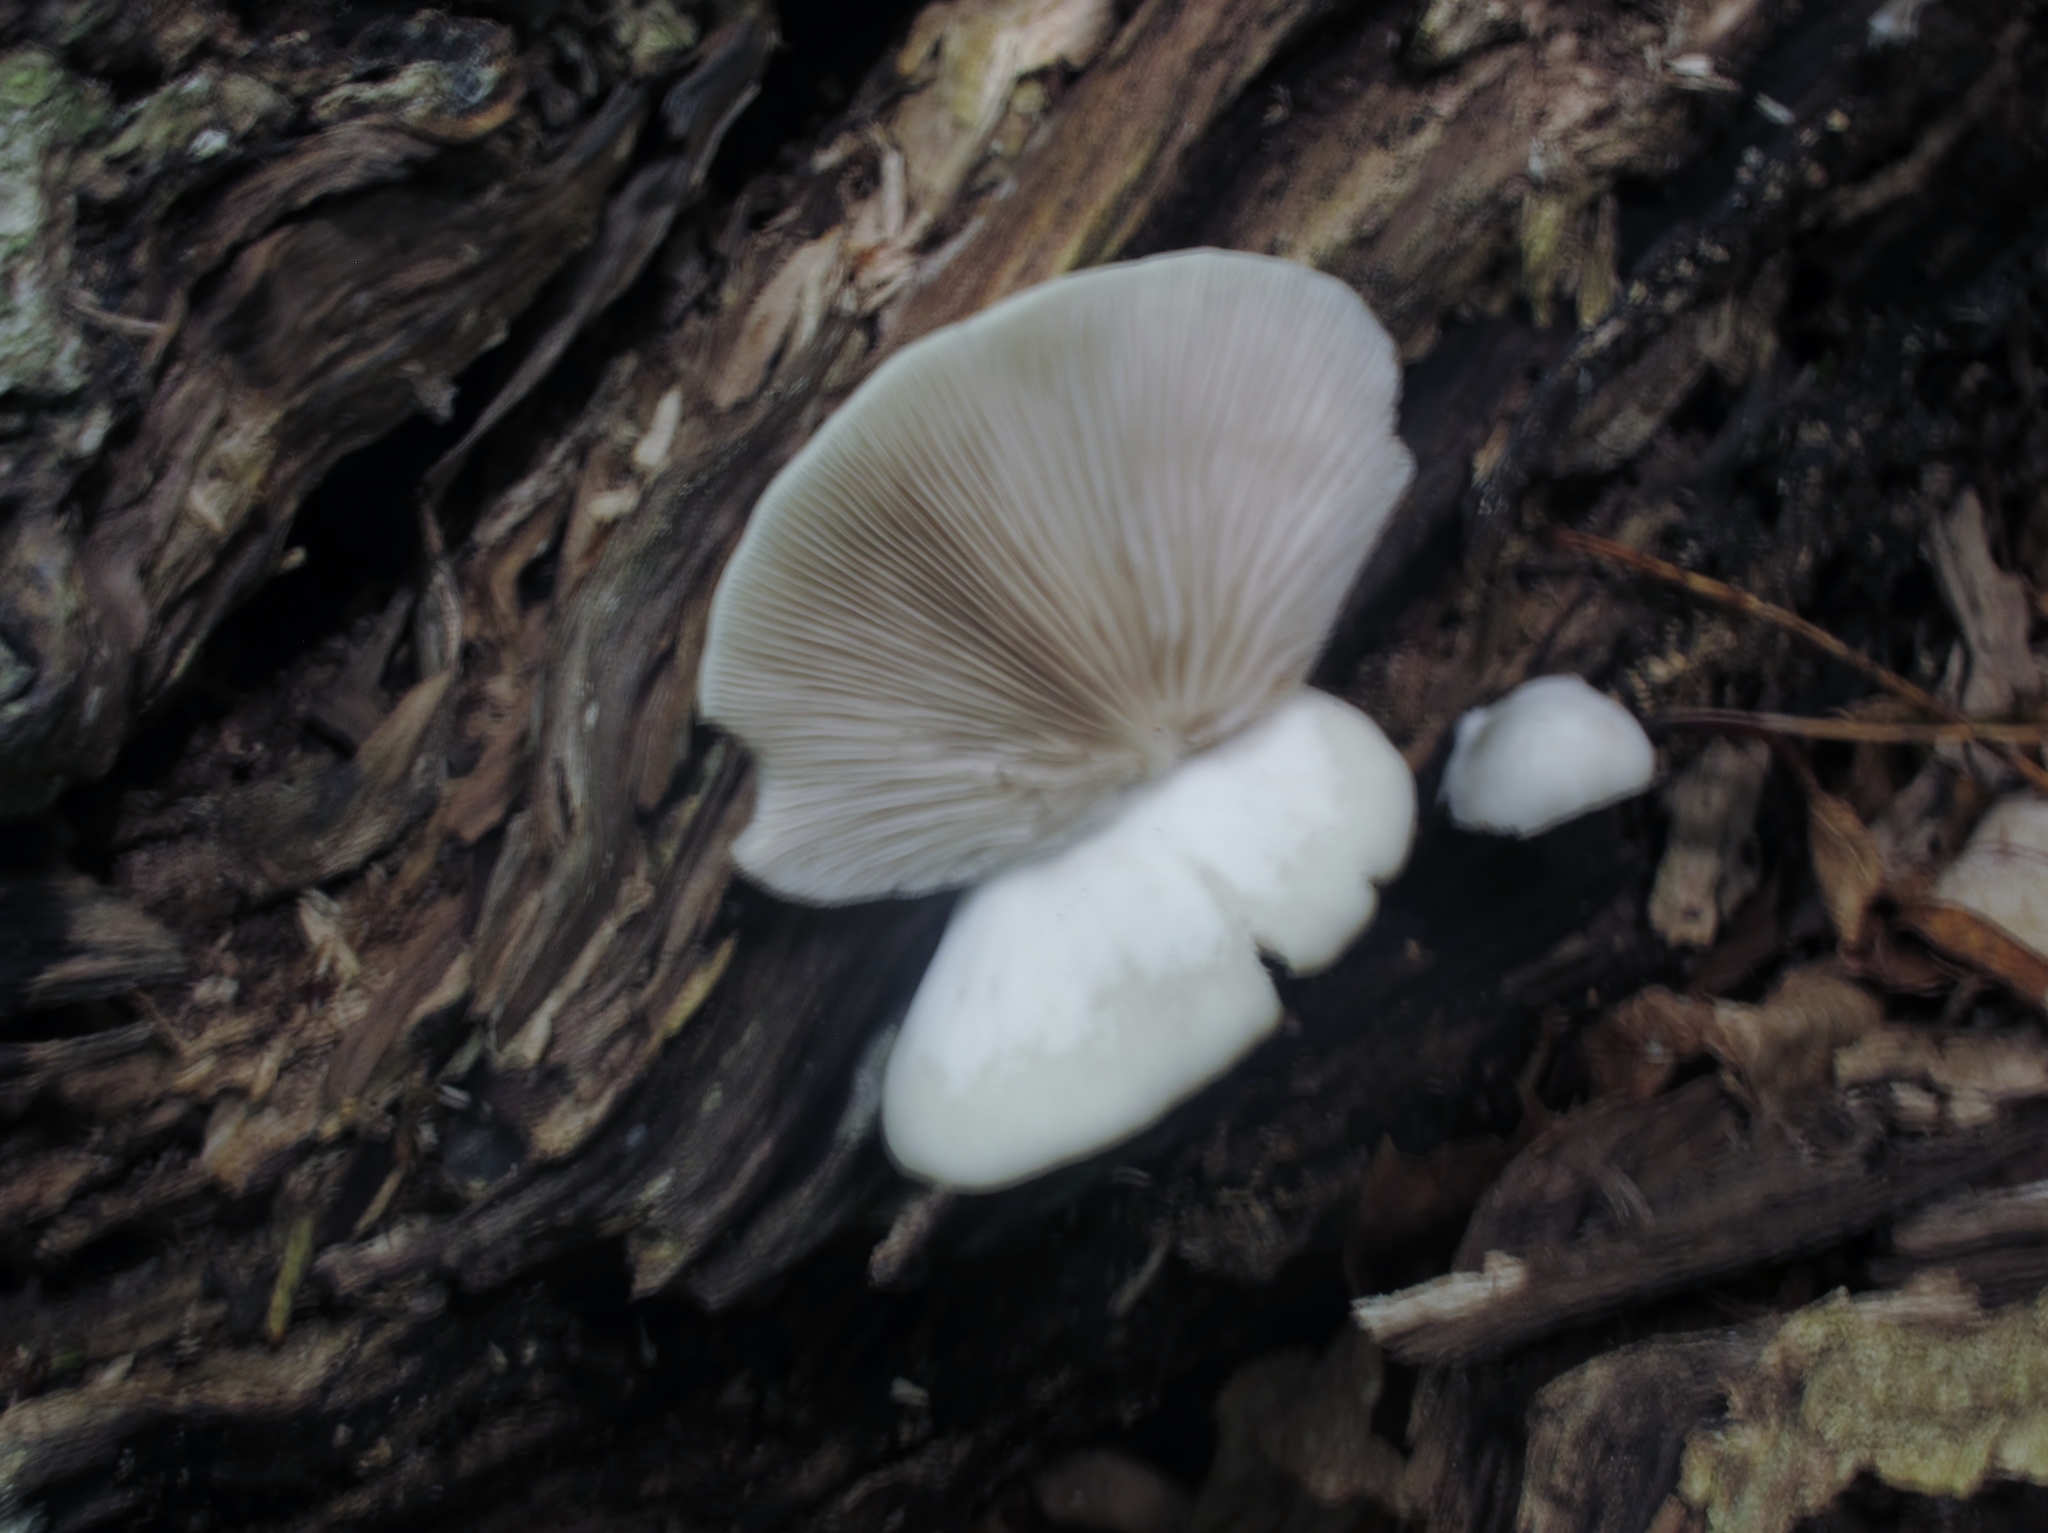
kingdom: Fungi
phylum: Basidiomycota
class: Agaricomycetes
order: Agaricales
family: Crepidotaceae
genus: Crepidotus
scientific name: Crepidotus applanatus
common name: Flat crep
